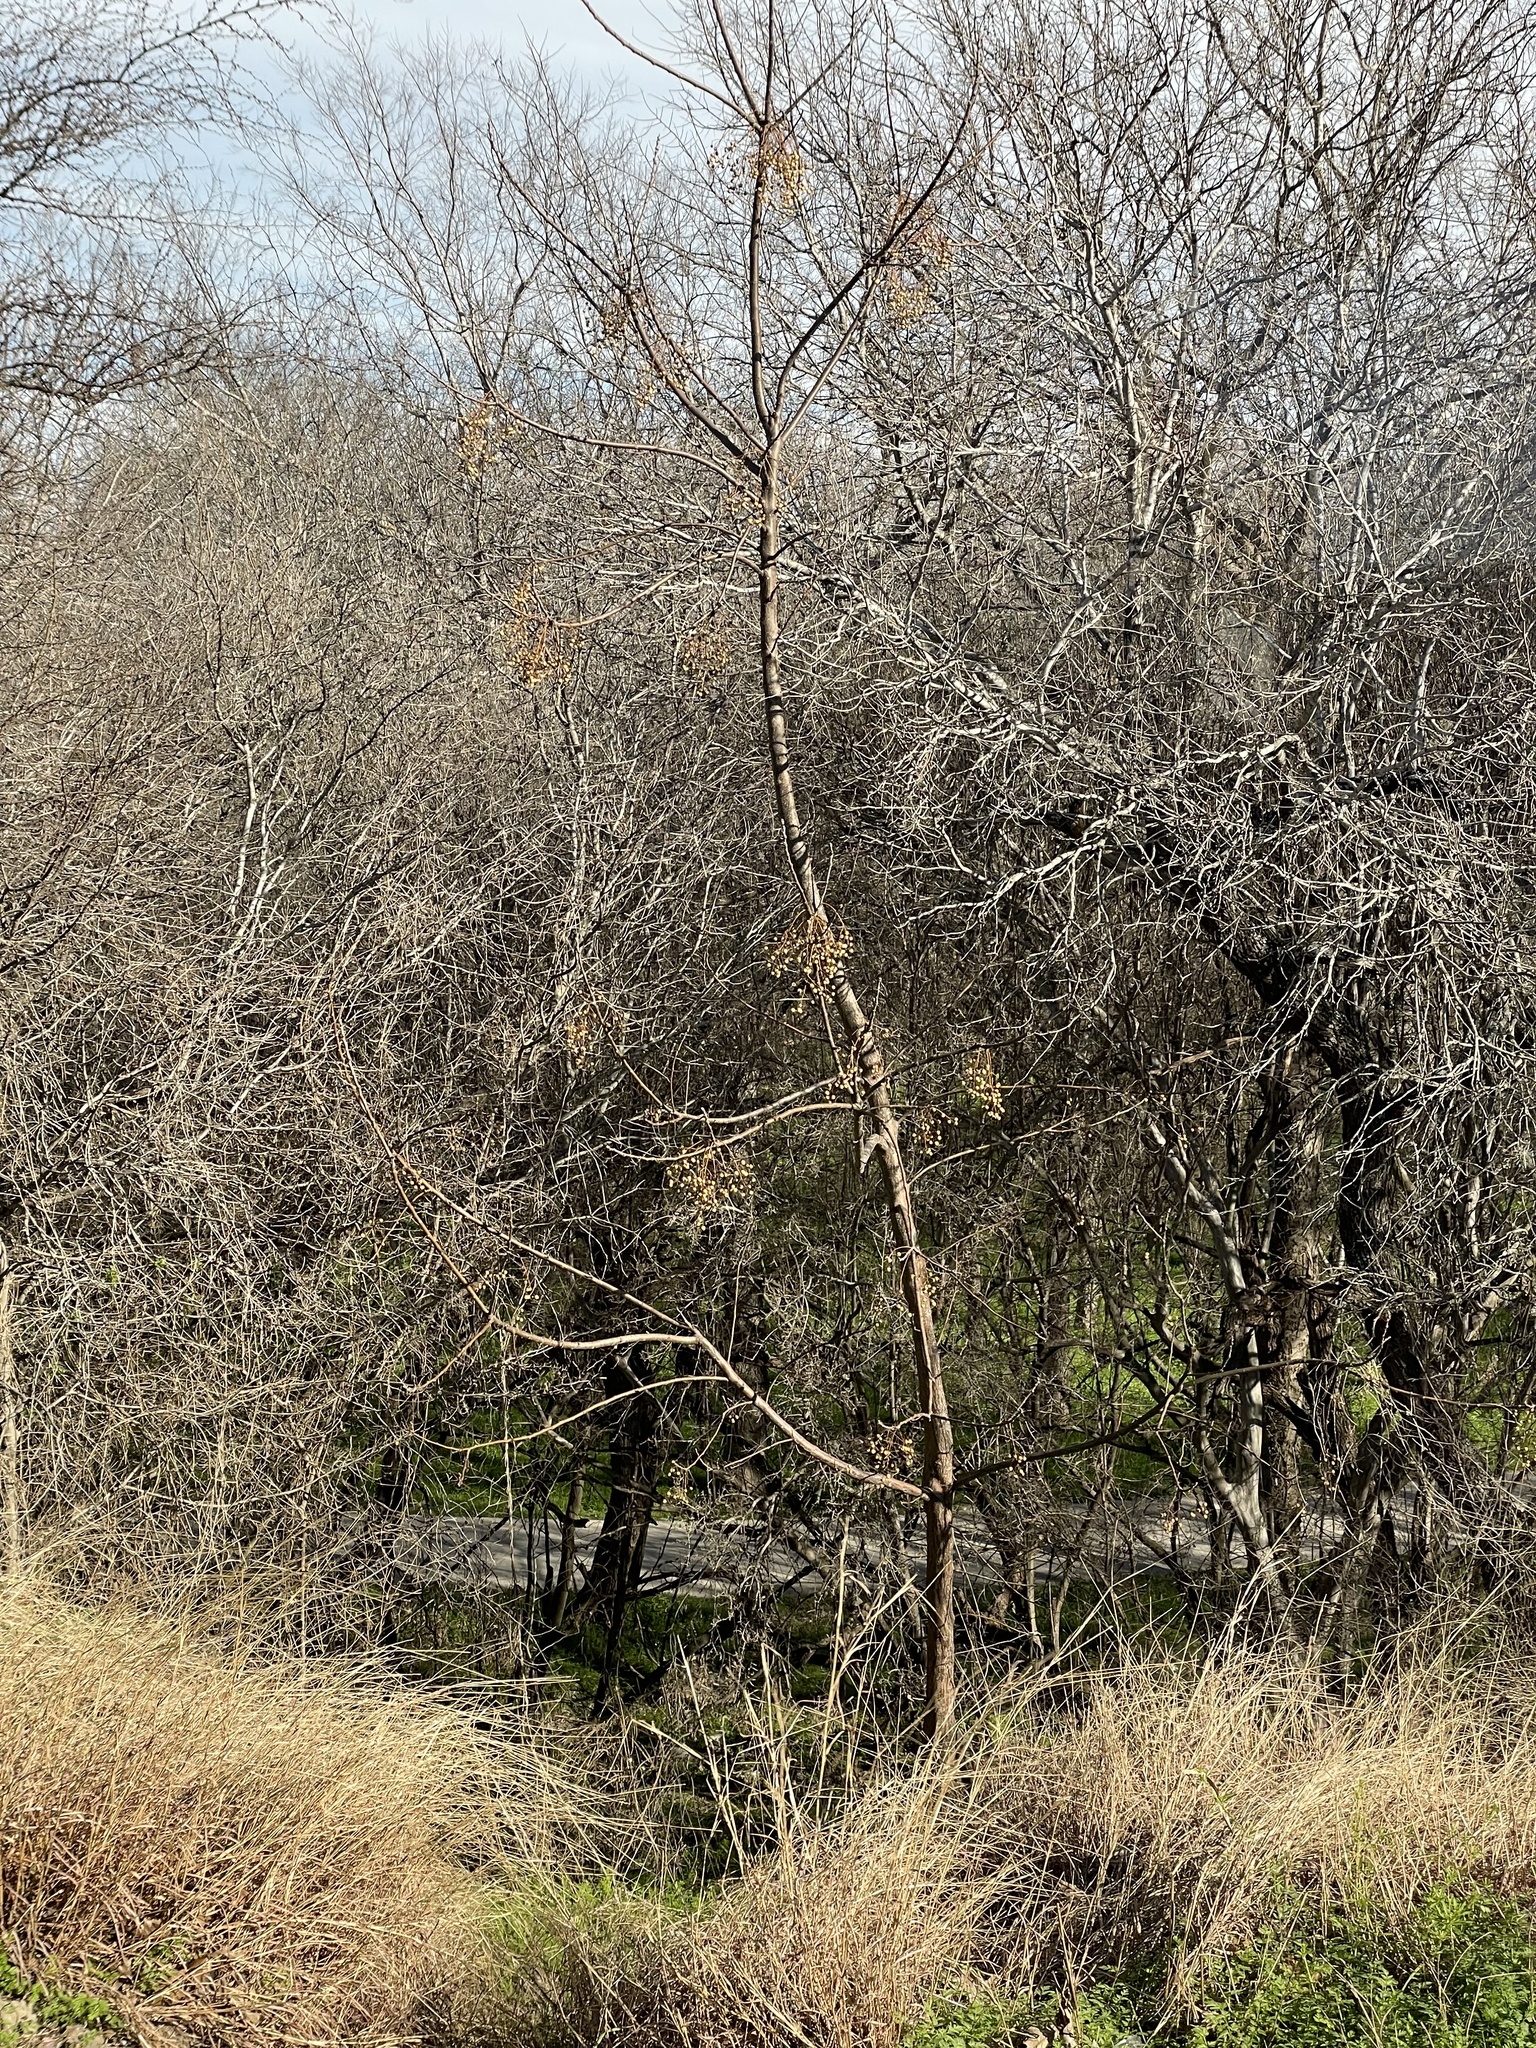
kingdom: Plantae
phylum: Tracheophyta
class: Magnoliopsida
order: Sapindales
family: Meliaceae
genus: Melia
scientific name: Melia azedarach
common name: Chinaberrytree
